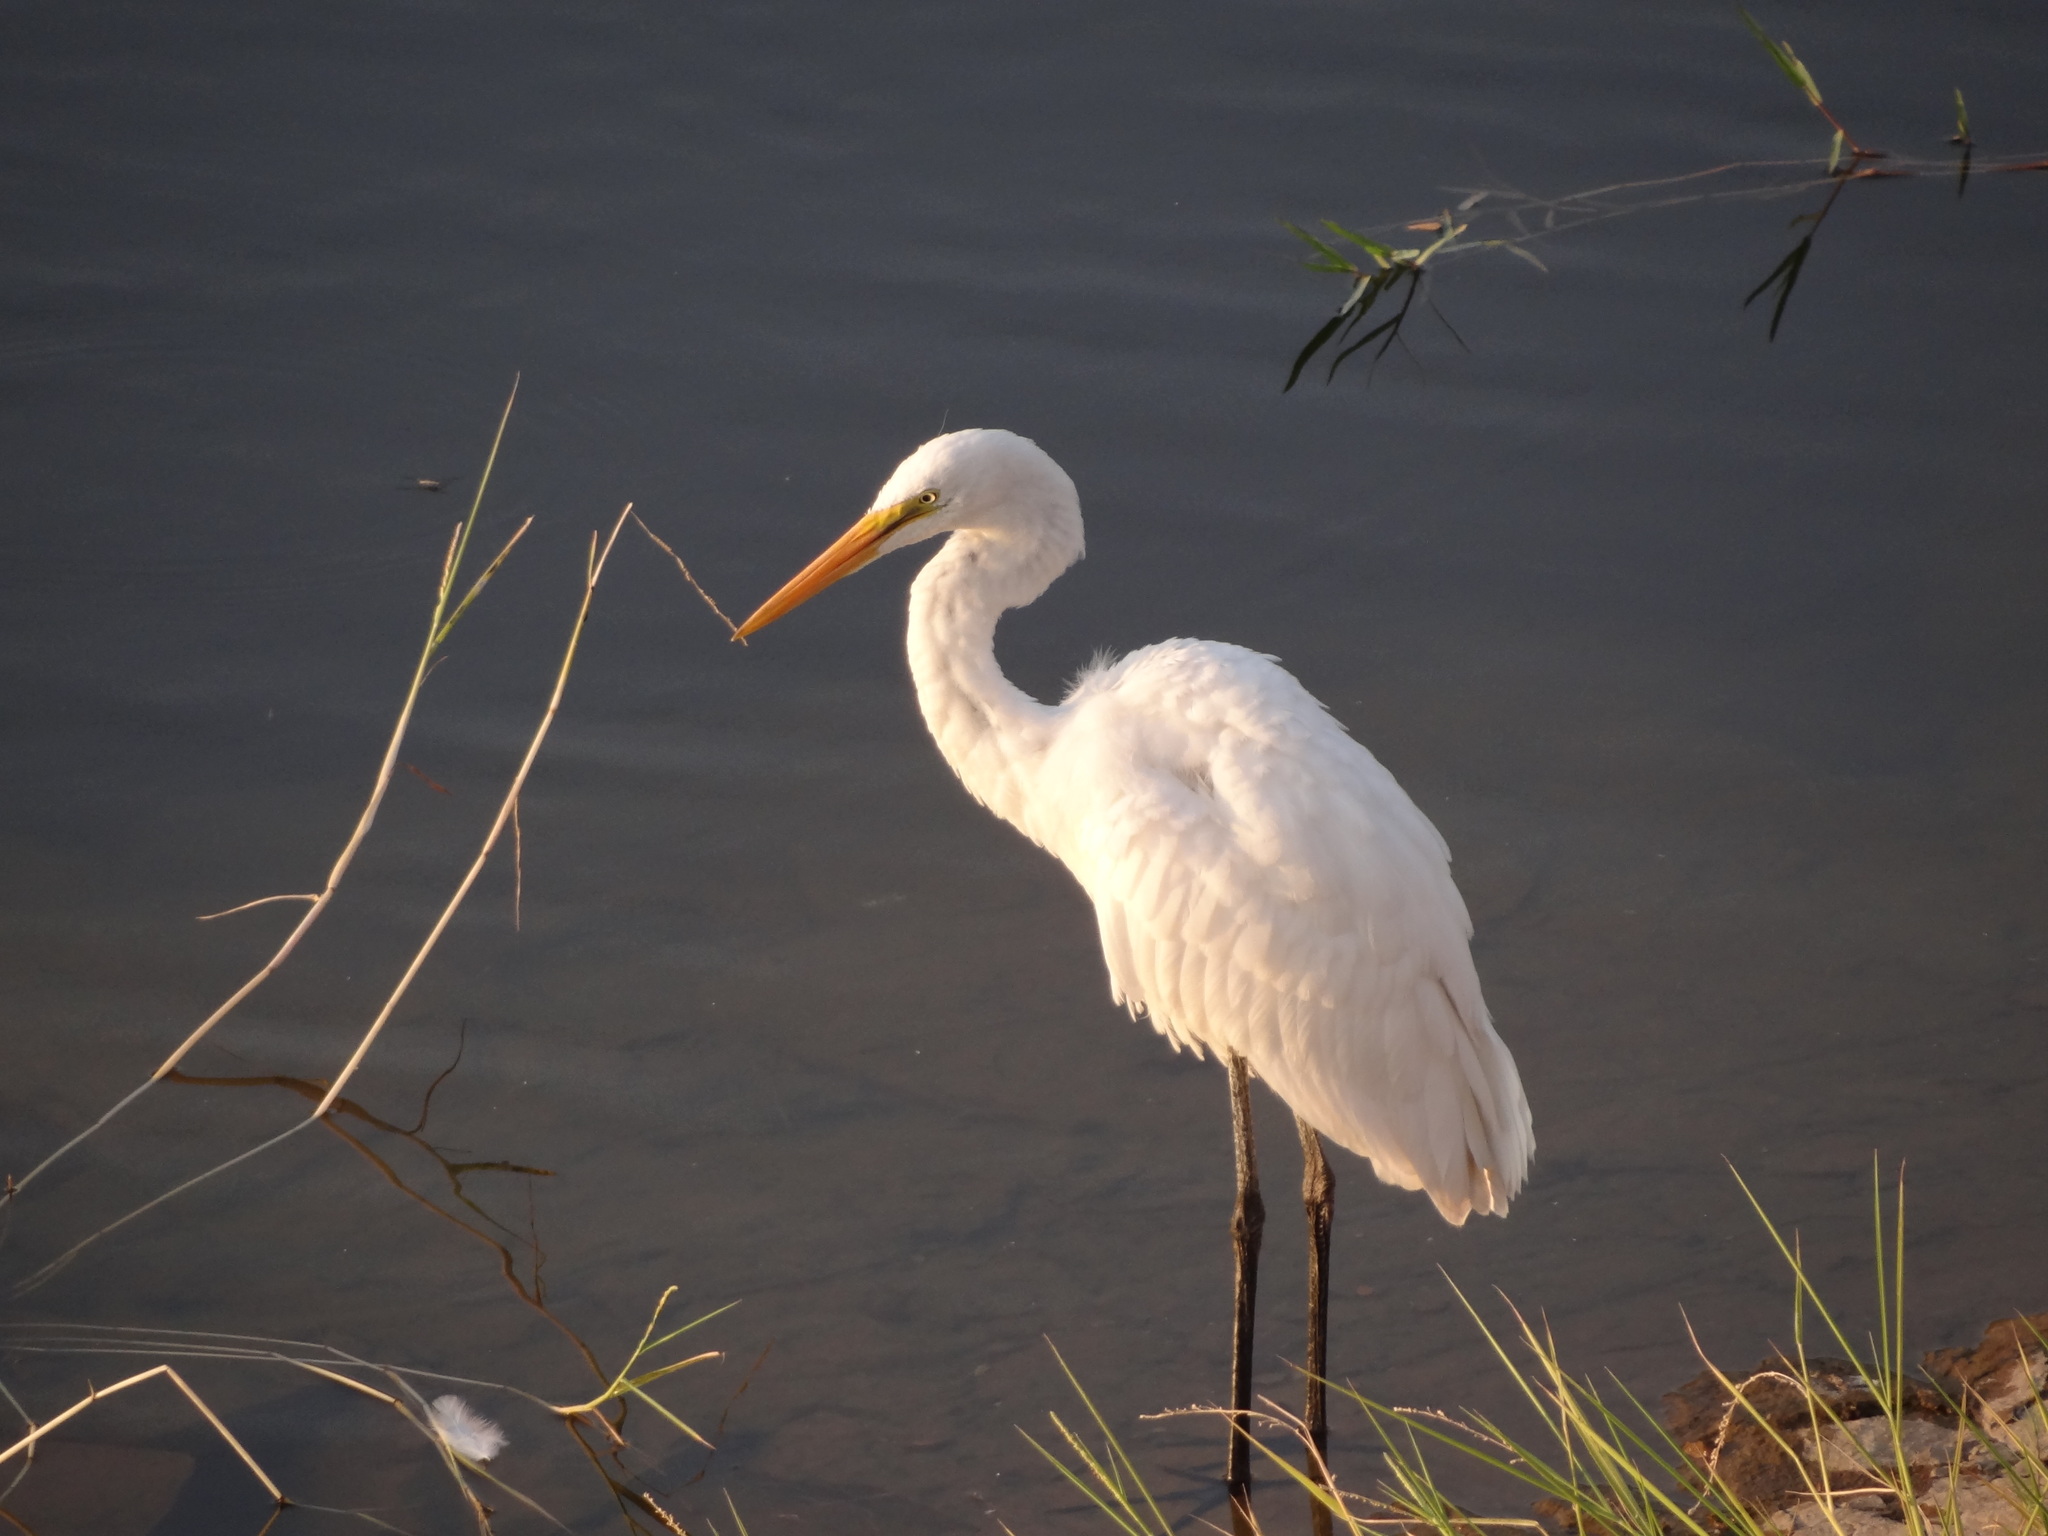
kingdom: Animalia
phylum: Chordata
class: Aves
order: Pelecaniformes
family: Ardeidae
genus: Ardea
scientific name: Ardea alba
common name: Great egret
